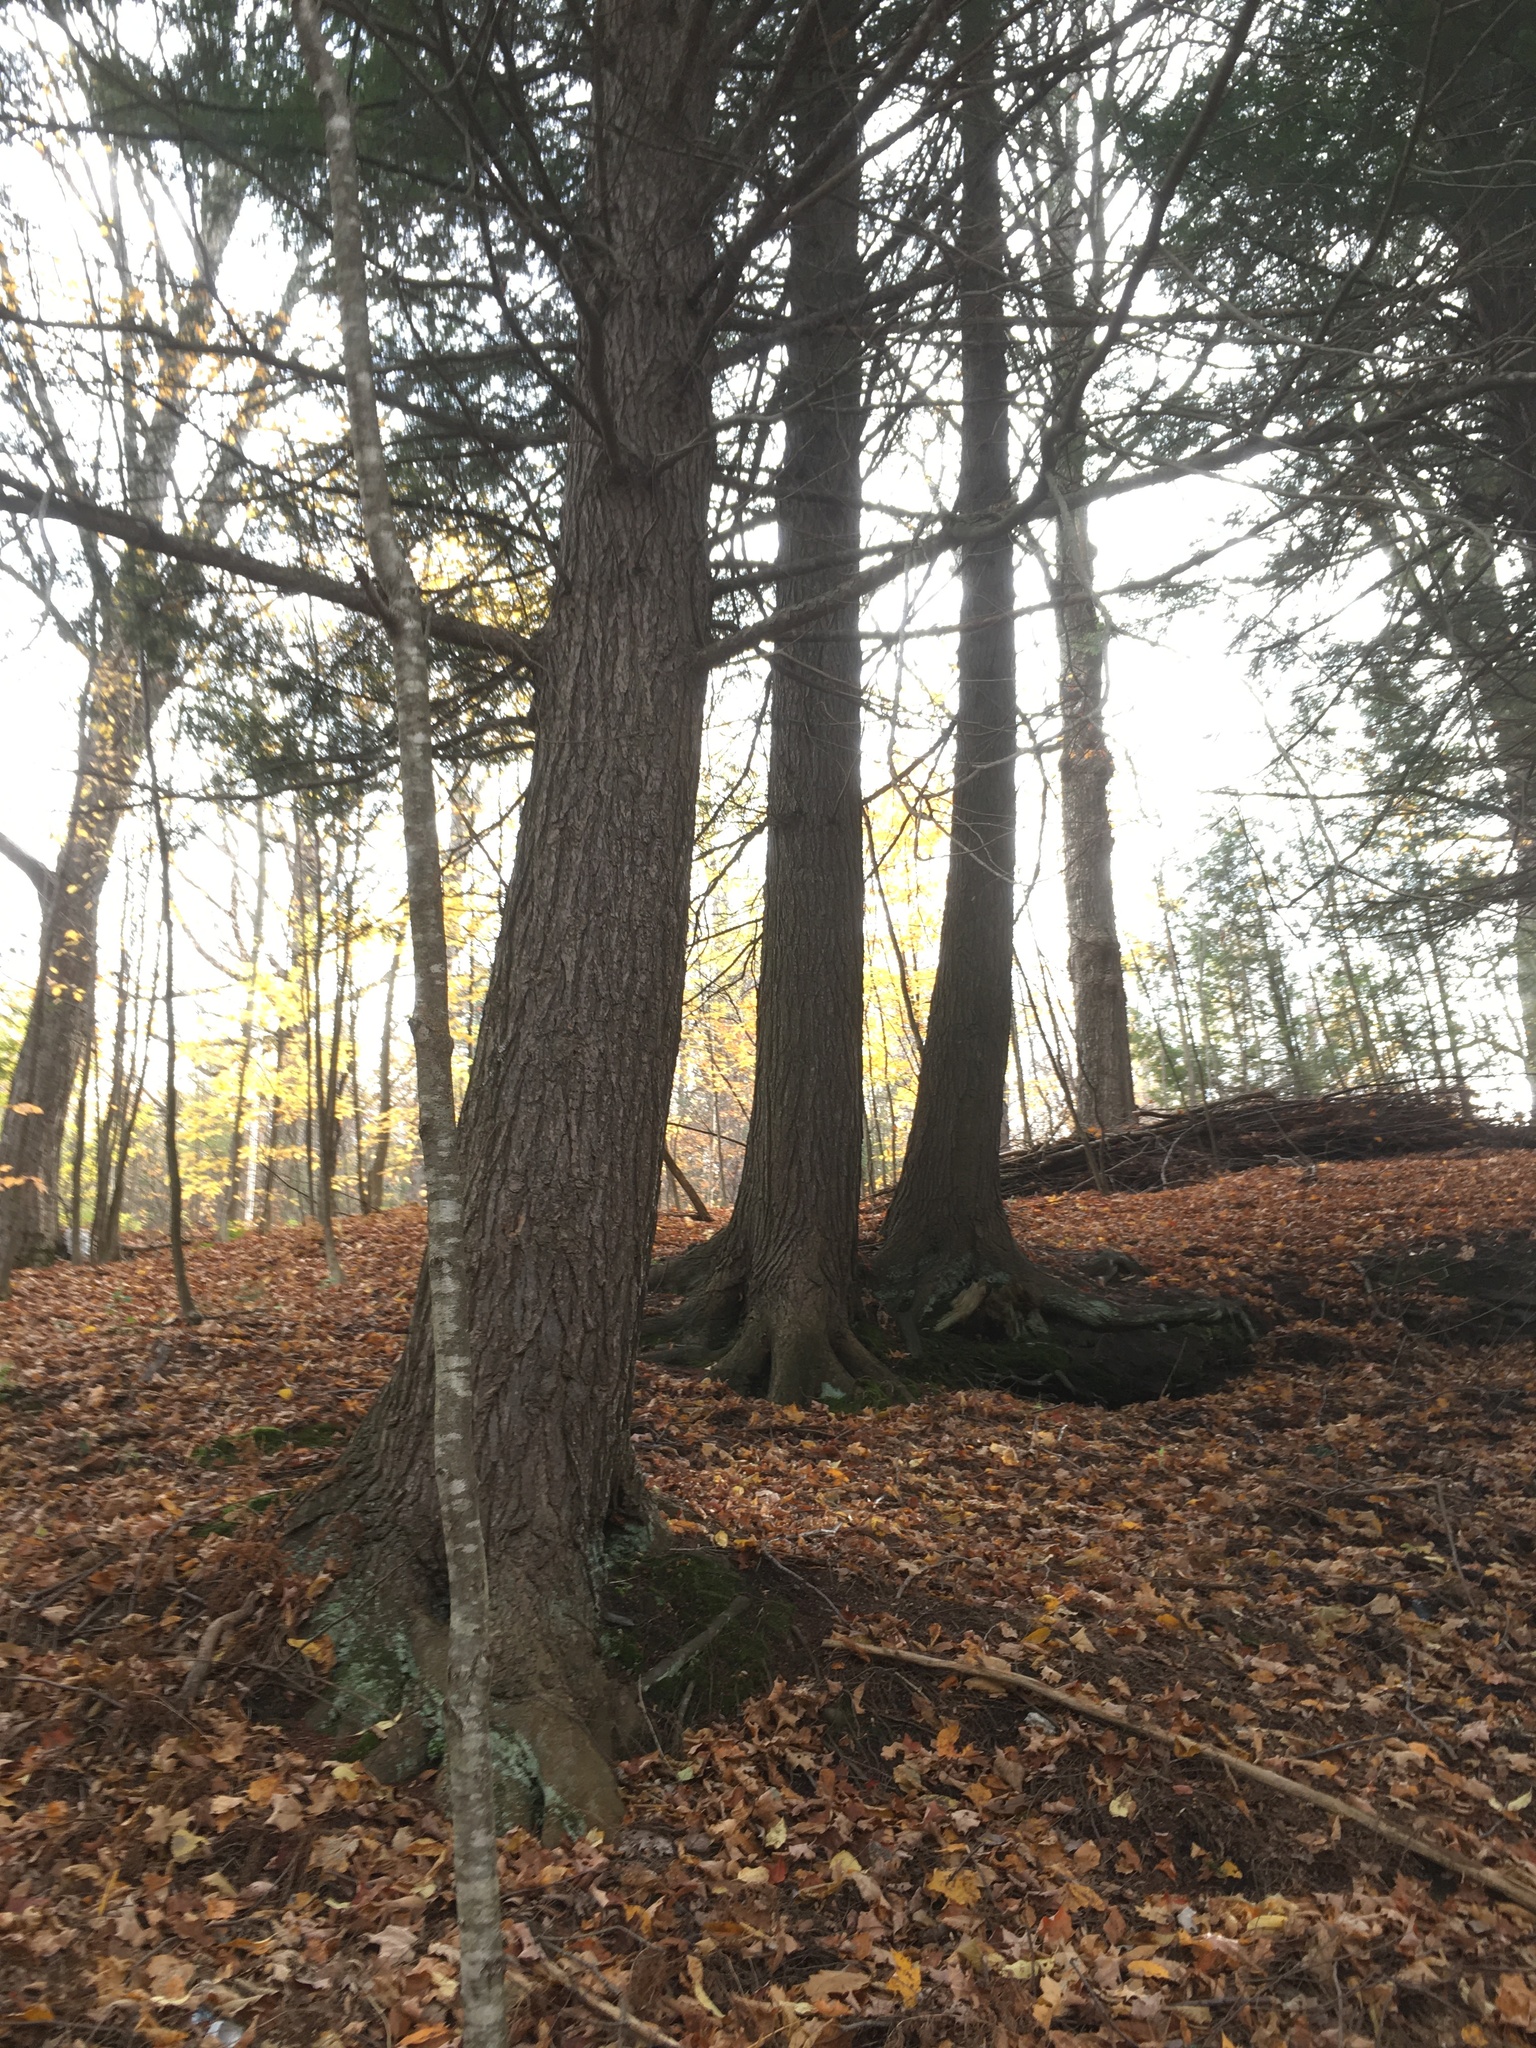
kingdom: Plantae
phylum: Tracheophyta
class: Pinopsida
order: Pinales
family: Pinaceae
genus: Tsuga
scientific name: Tsuga canadensis
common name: Eastern hemlock
